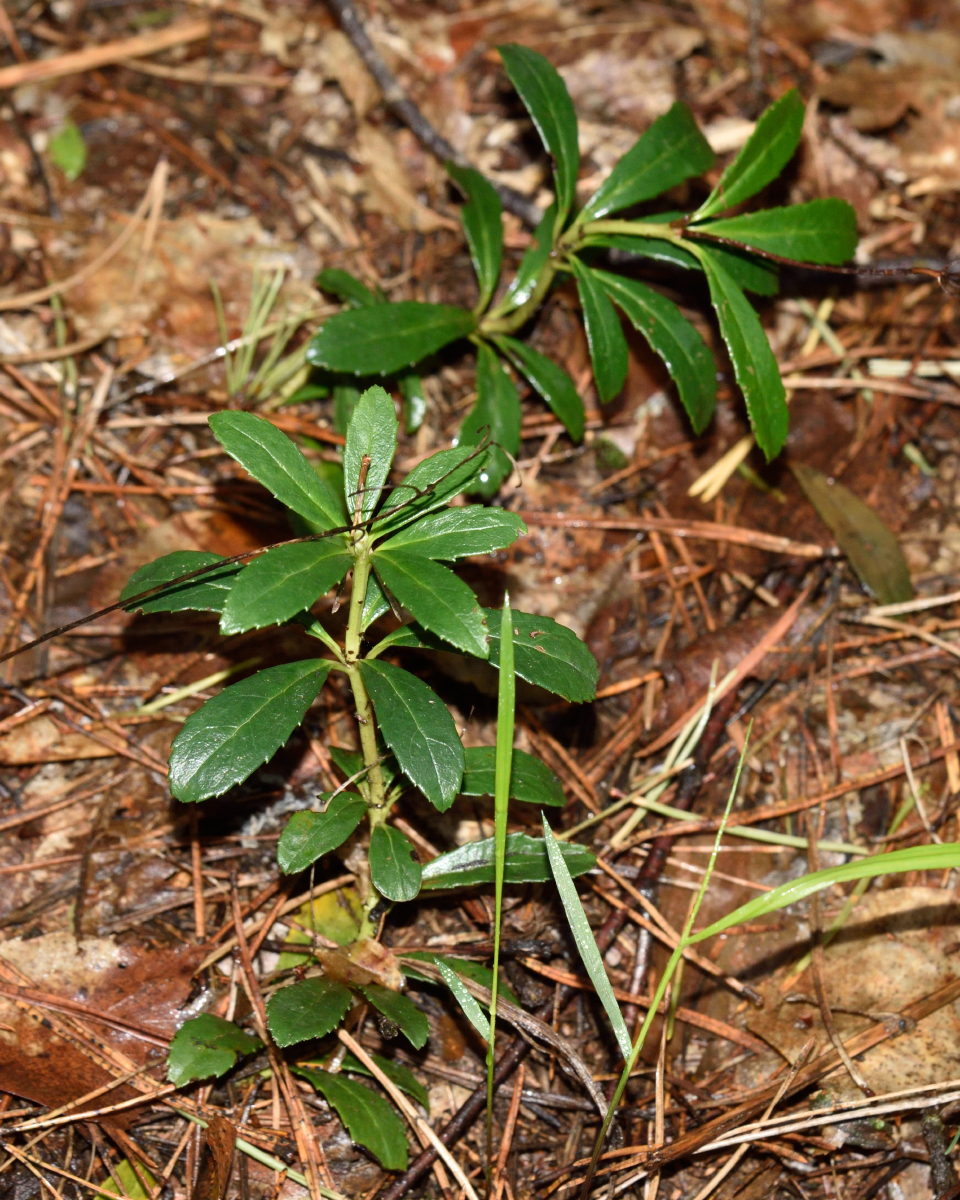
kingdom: Plantae
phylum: Tracheophyta
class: Magnoliopsida
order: Ericales
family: Ericaceae
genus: Chimaphila
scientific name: Chimaphila umbellata
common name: Pipsissewa
